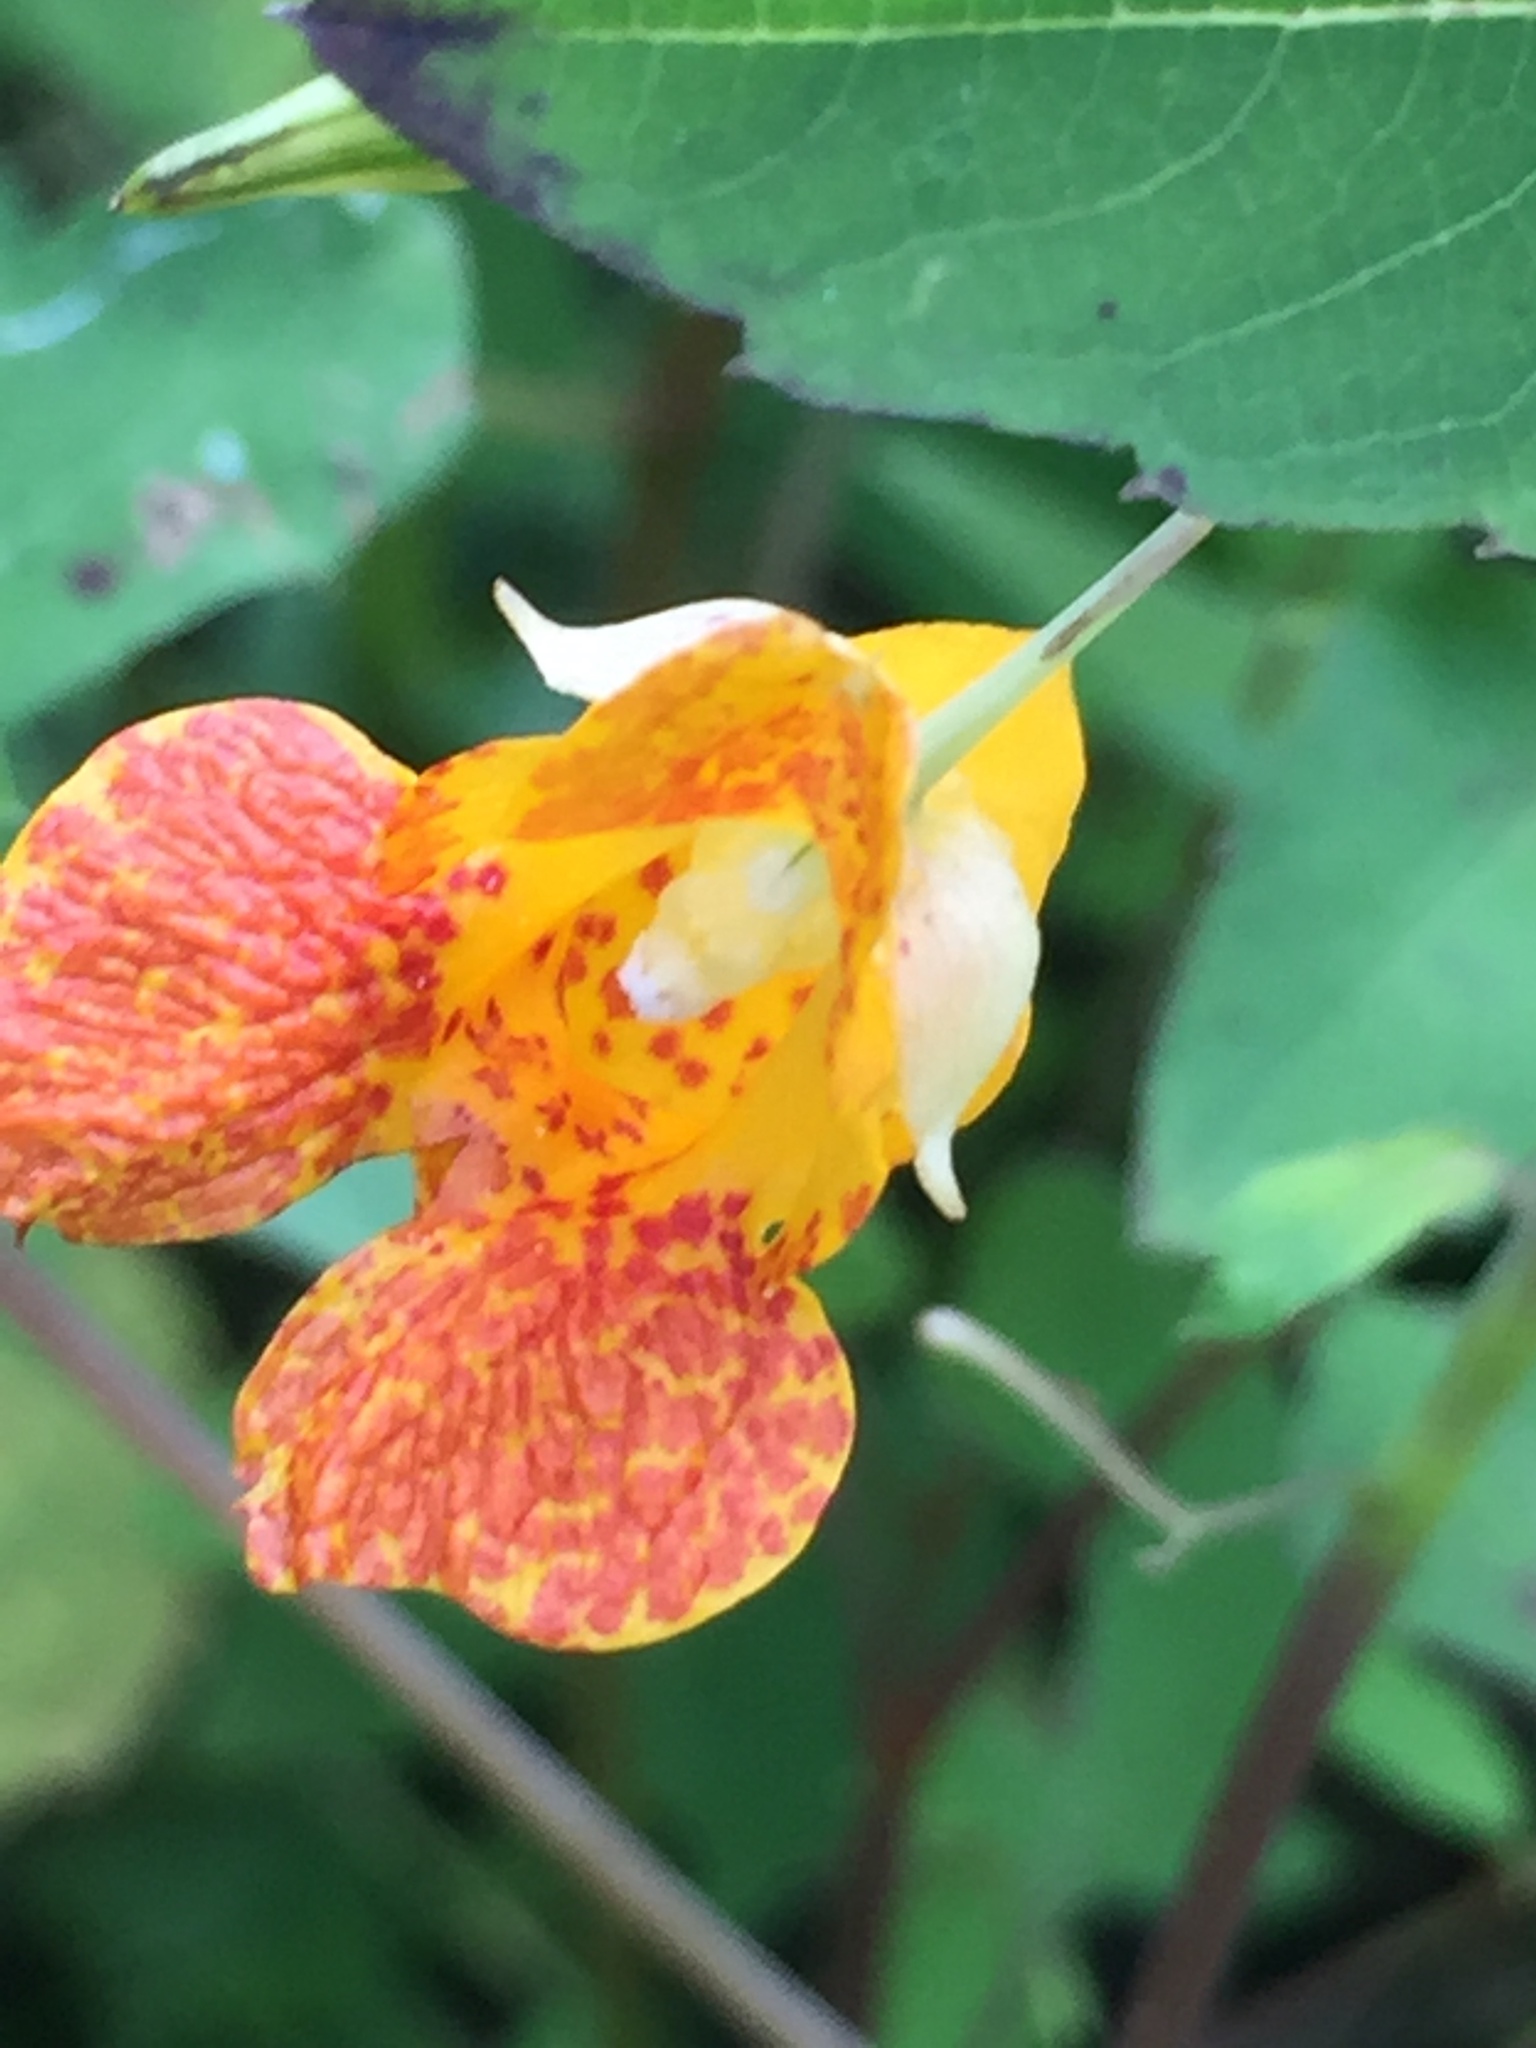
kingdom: Plantae
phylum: Tracheophyta
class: Magnoliopsida
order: Ericales
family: Balsaminaceae
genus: Impatiens
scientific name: Impatiens capensis
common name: Orange balsam
